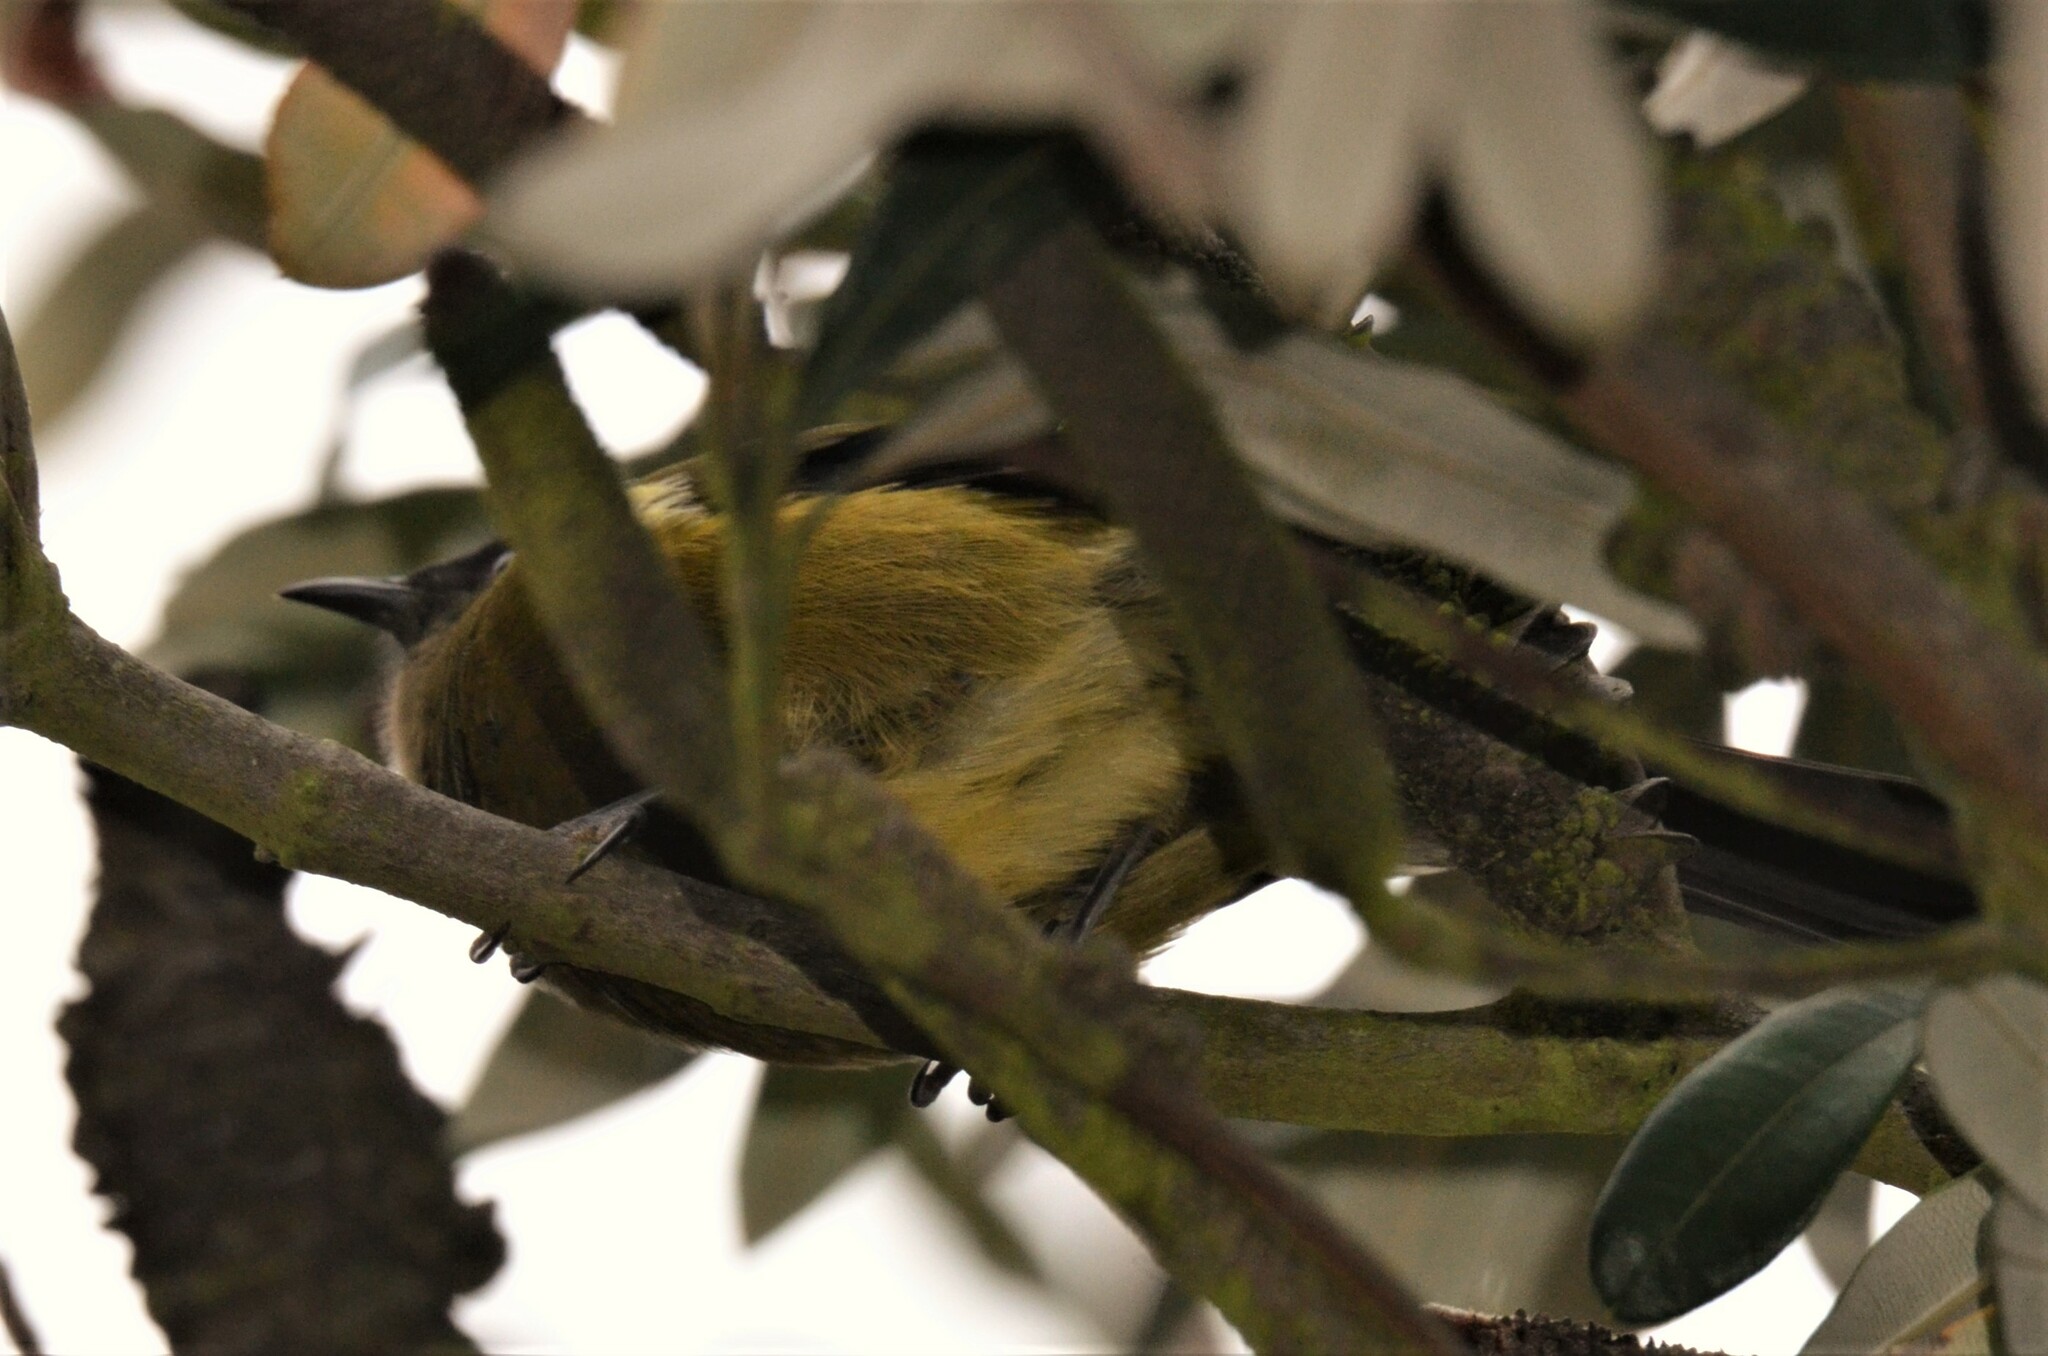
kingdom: Animalia
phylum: Chordata
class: Aves
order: Passeriformes
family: Meliphagidae
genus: Anthornis
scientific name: Anthornis melanura
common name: New zealand bellbird
